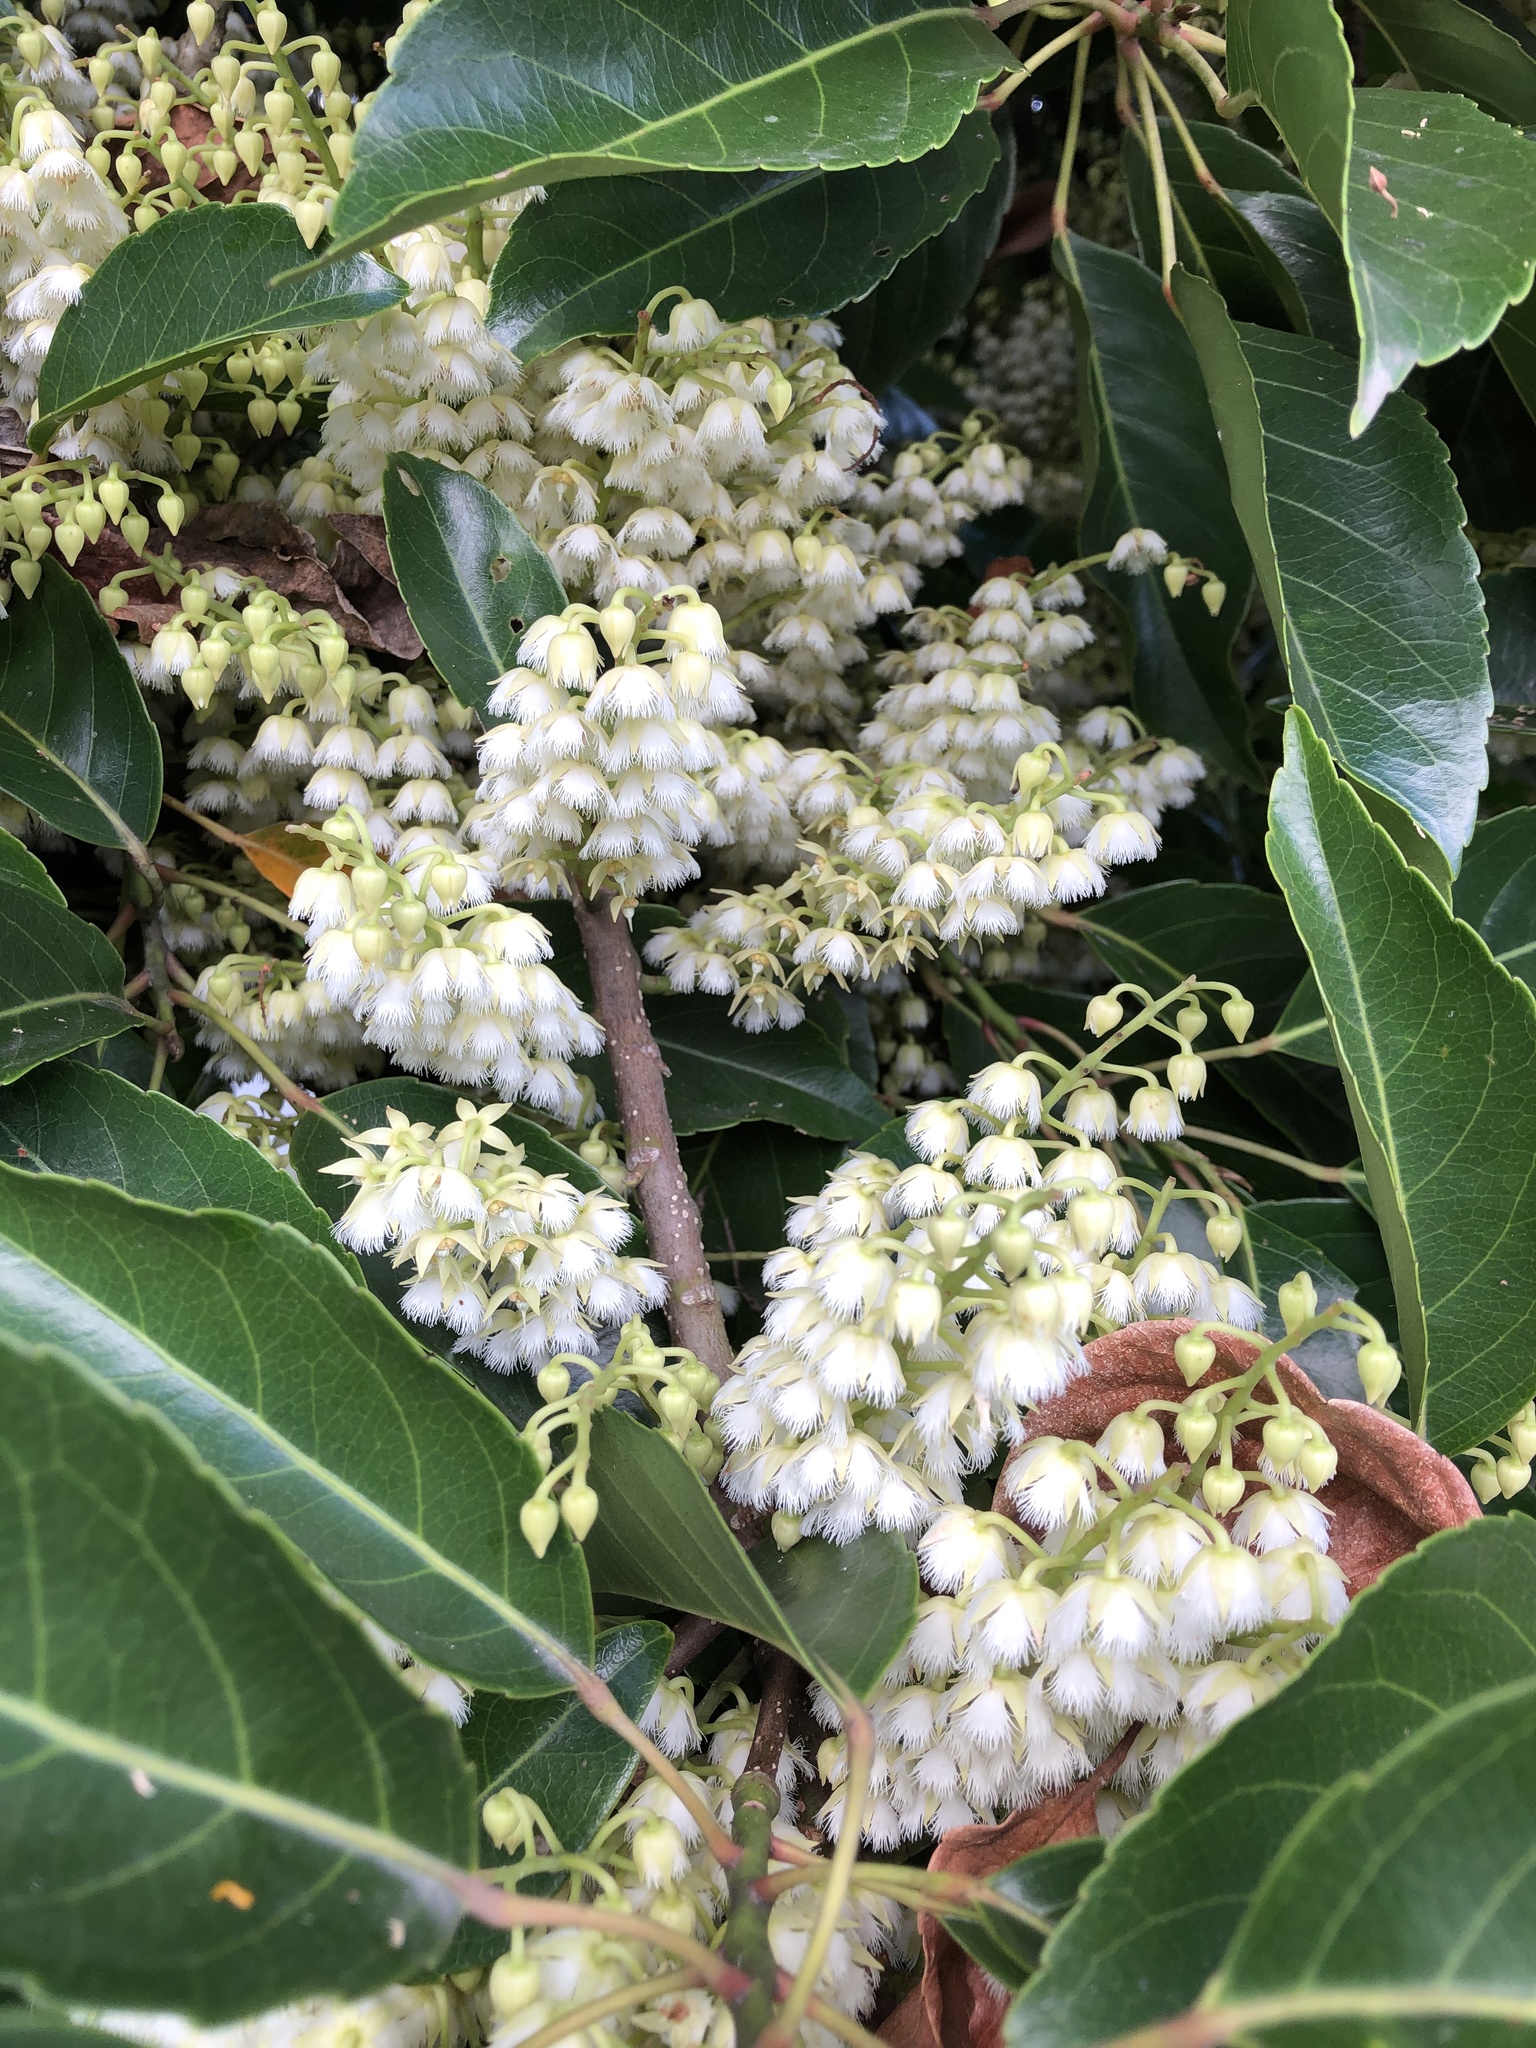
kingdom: Plantae
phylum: Tracheophyta
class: Magnoliopsida
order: Oxalidales
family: Elaeocarpaceae
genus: Elaeocarpus
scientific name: Elaeocarpus serratus
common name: Ceylon-olive
